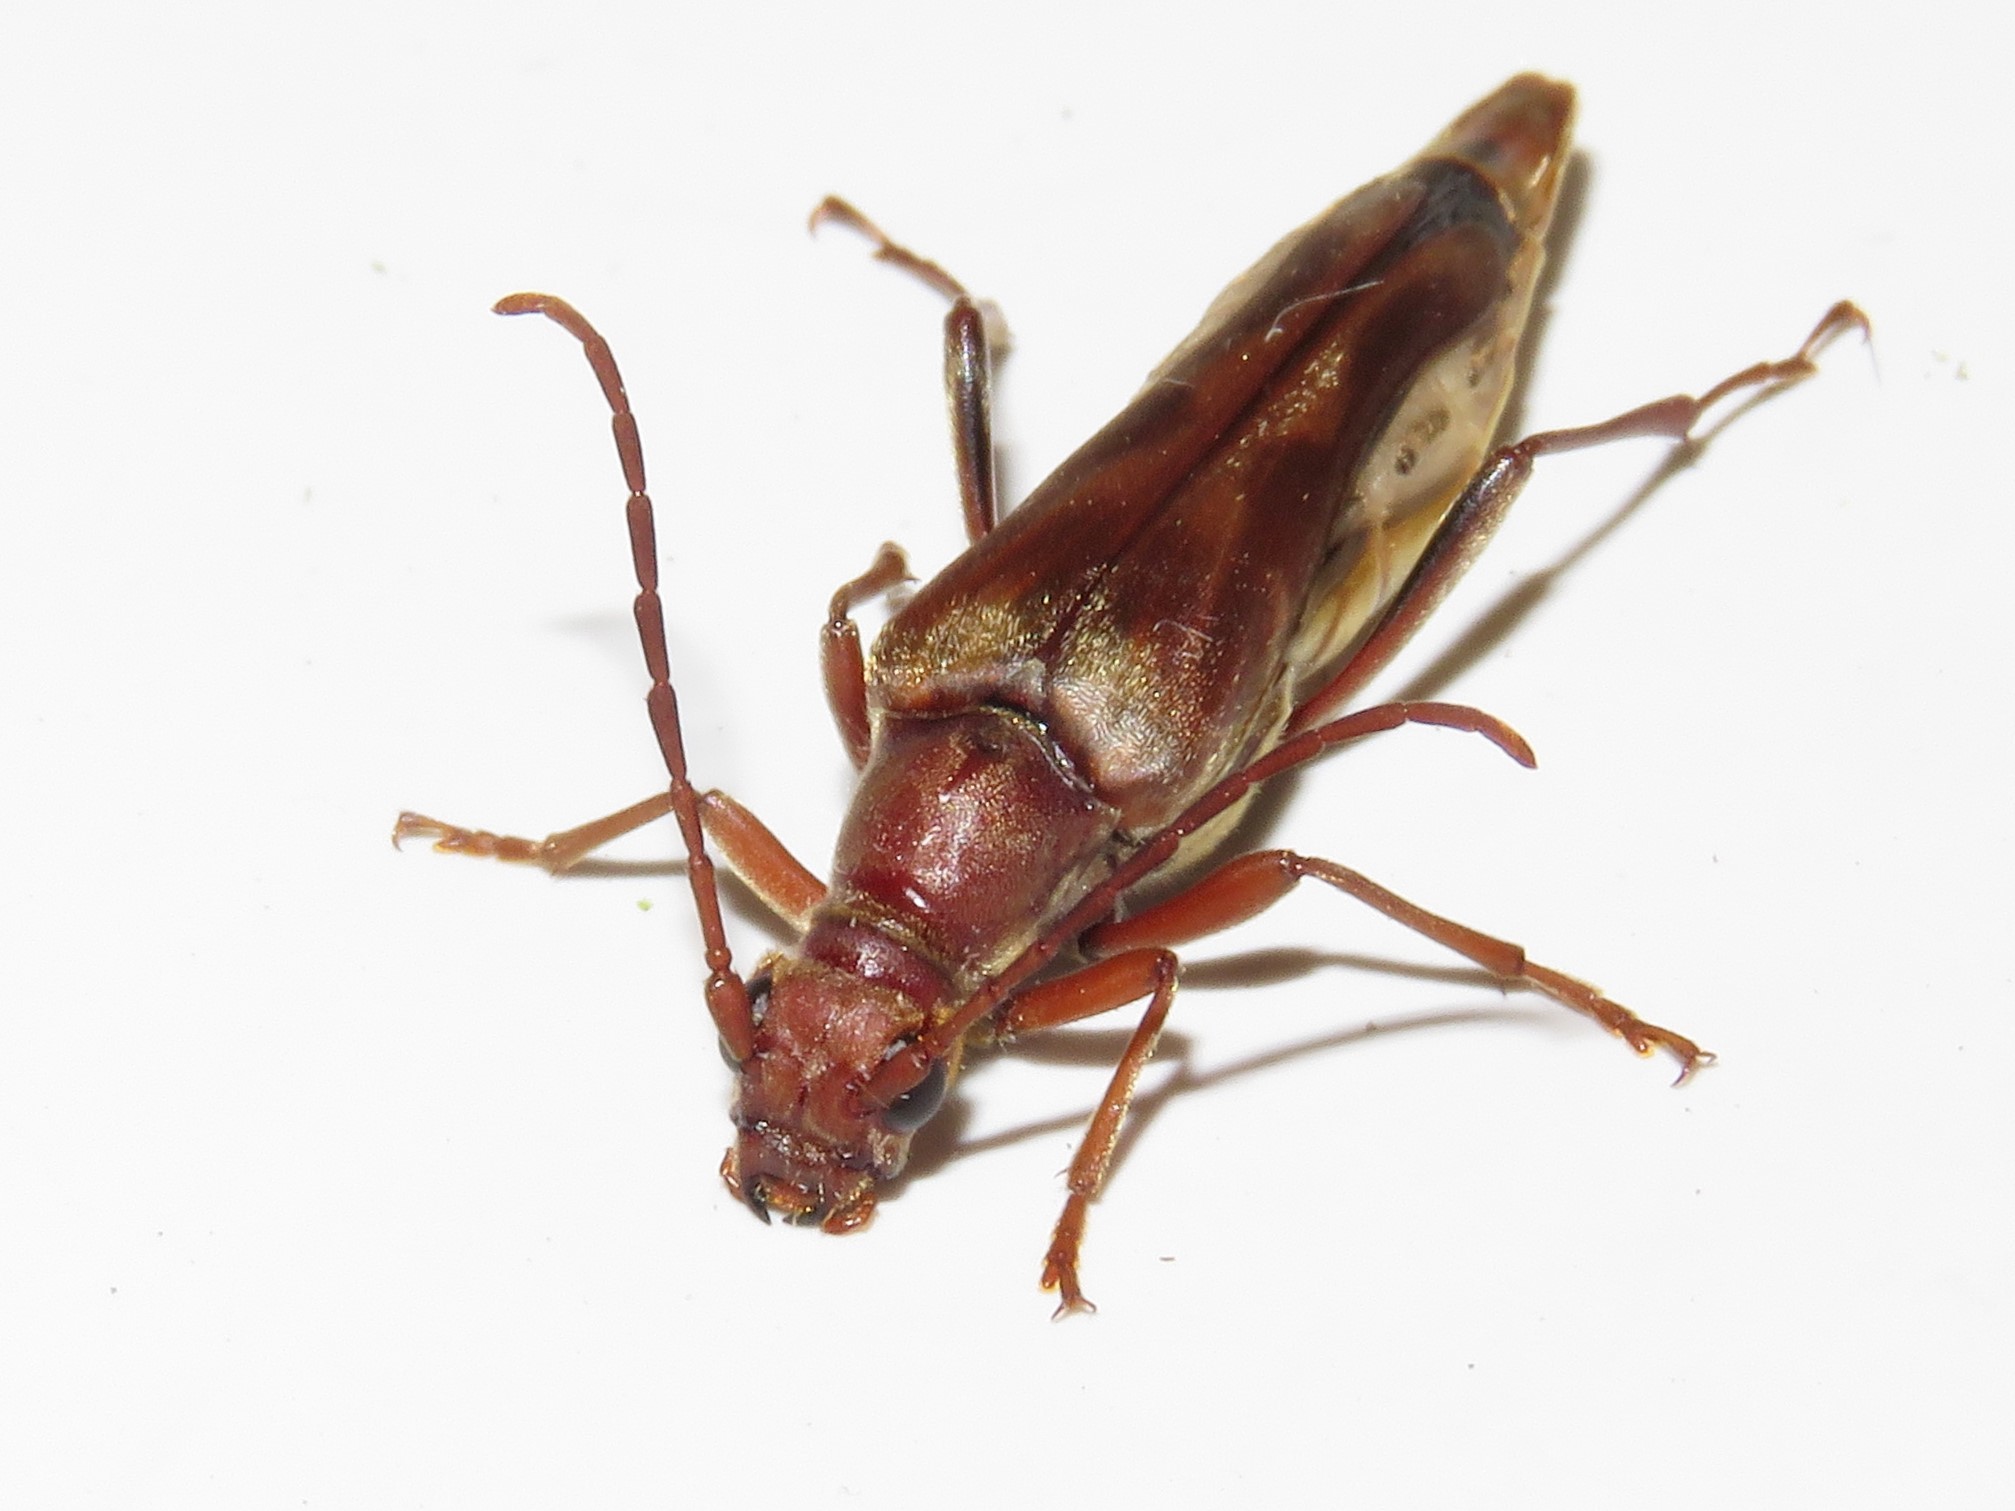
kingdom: Animalia
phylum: Arthropoda
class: Insecta
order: Coleoptera
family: Cerambycidae
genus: Bellamira
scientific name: Bellamira scalaris
